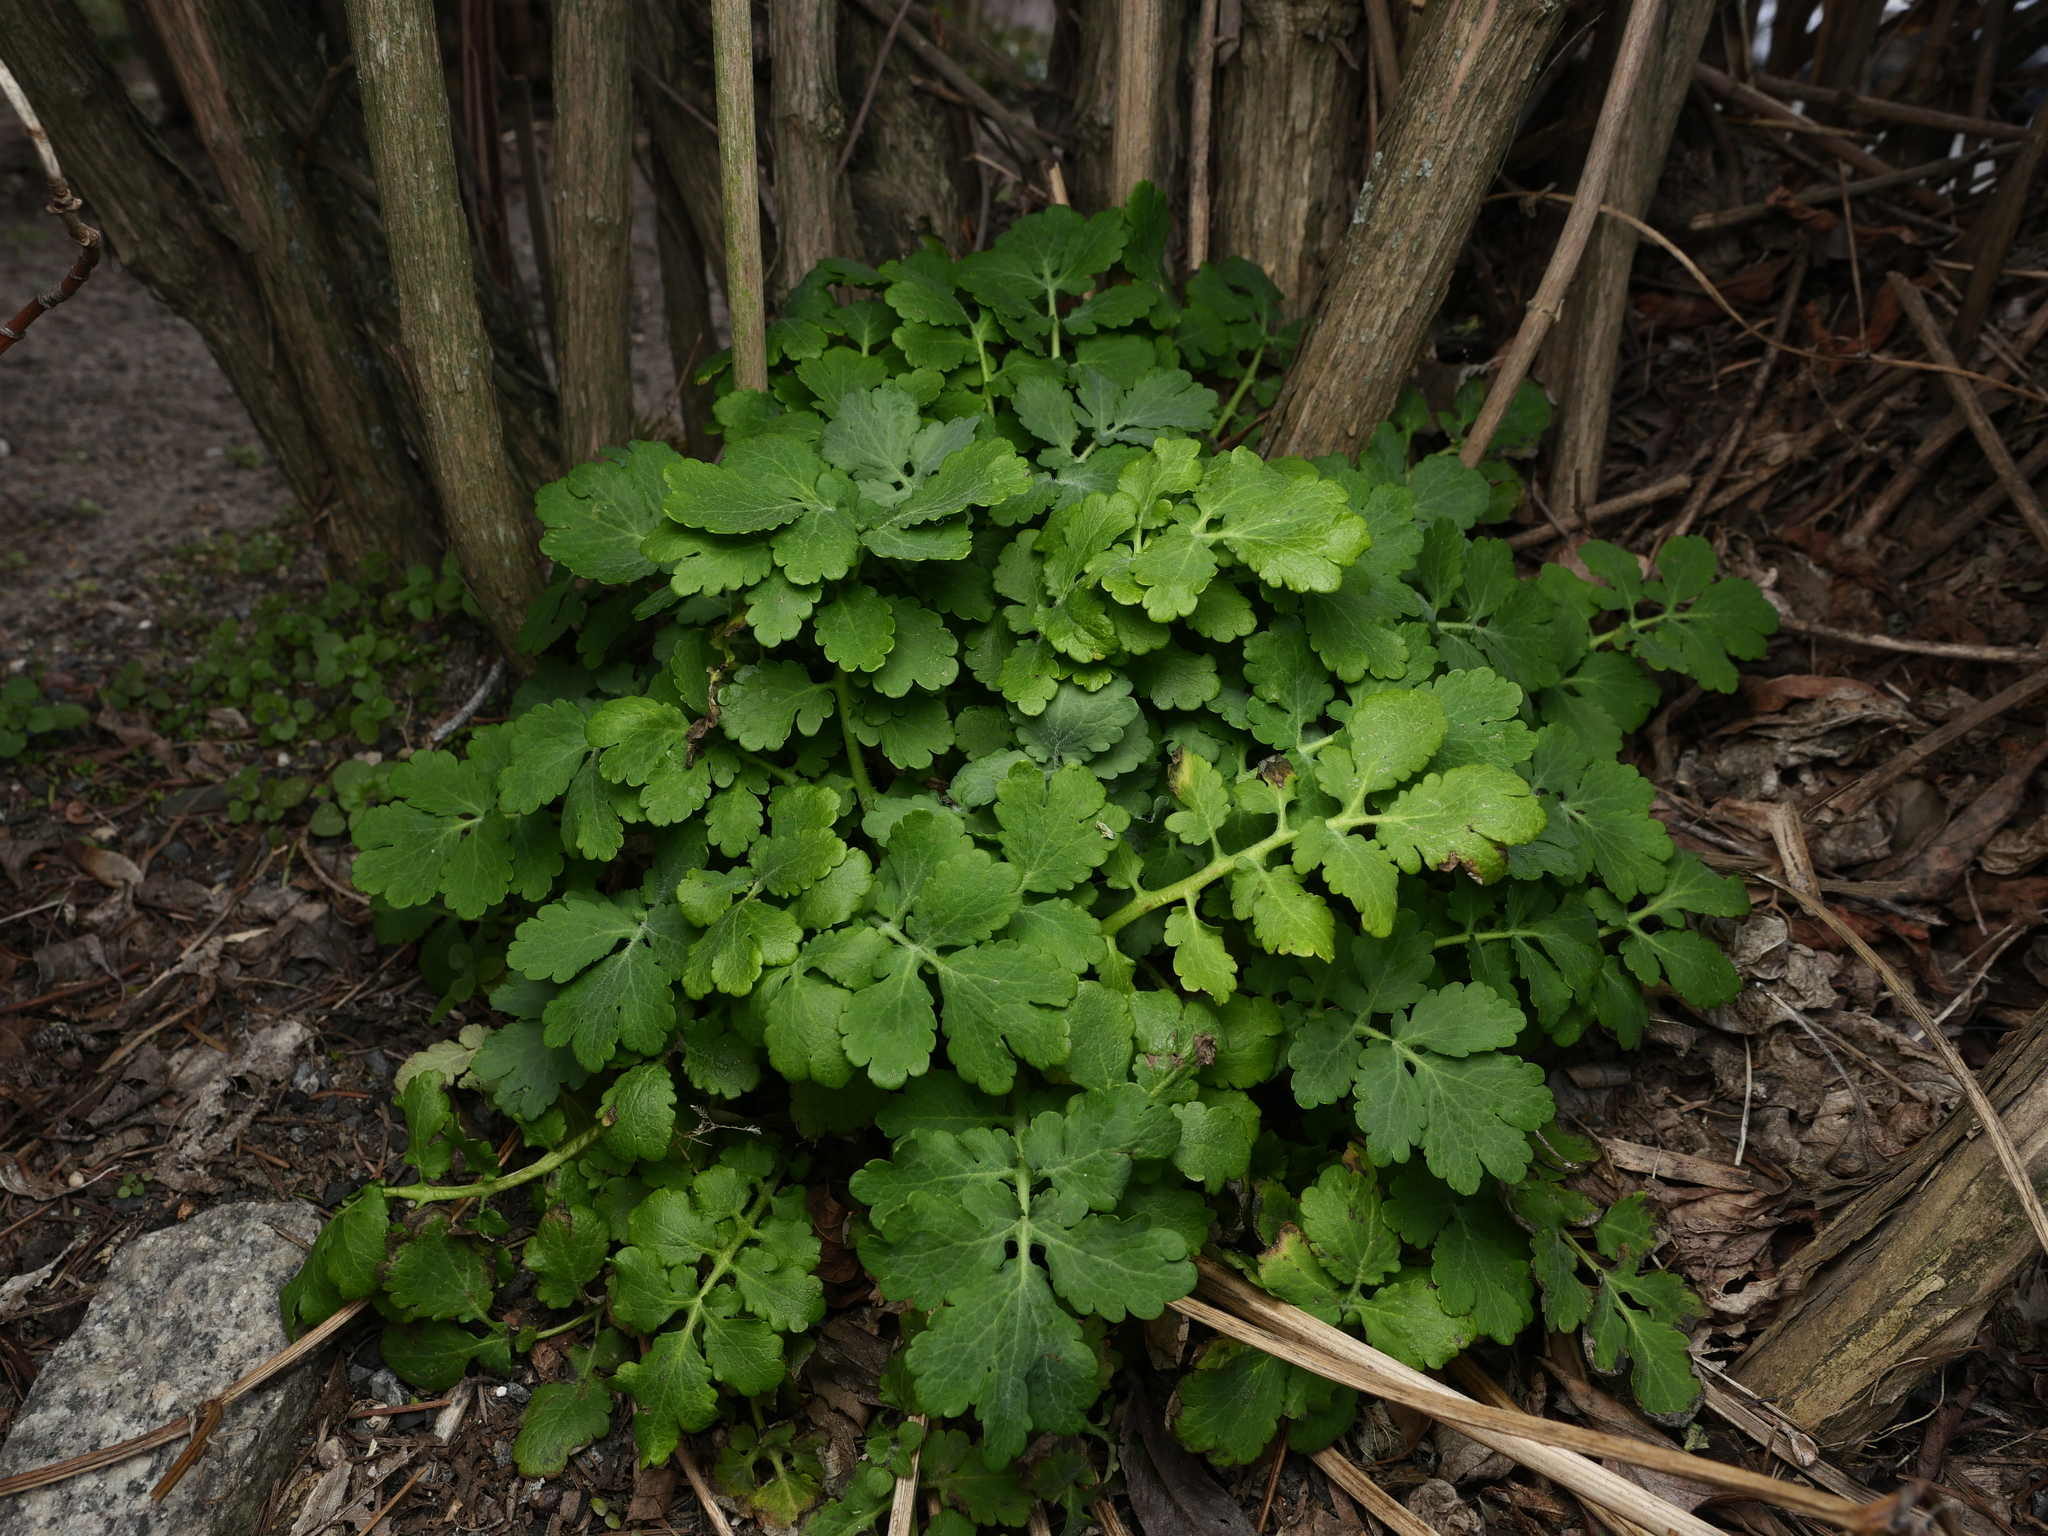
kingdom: Plantae
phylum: Tracheophyta
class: Magnoliopsida
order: Ranunculales
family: Papaveraceae
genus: Chelidonium
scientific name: Chelidonium majus
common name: Greater celandine
